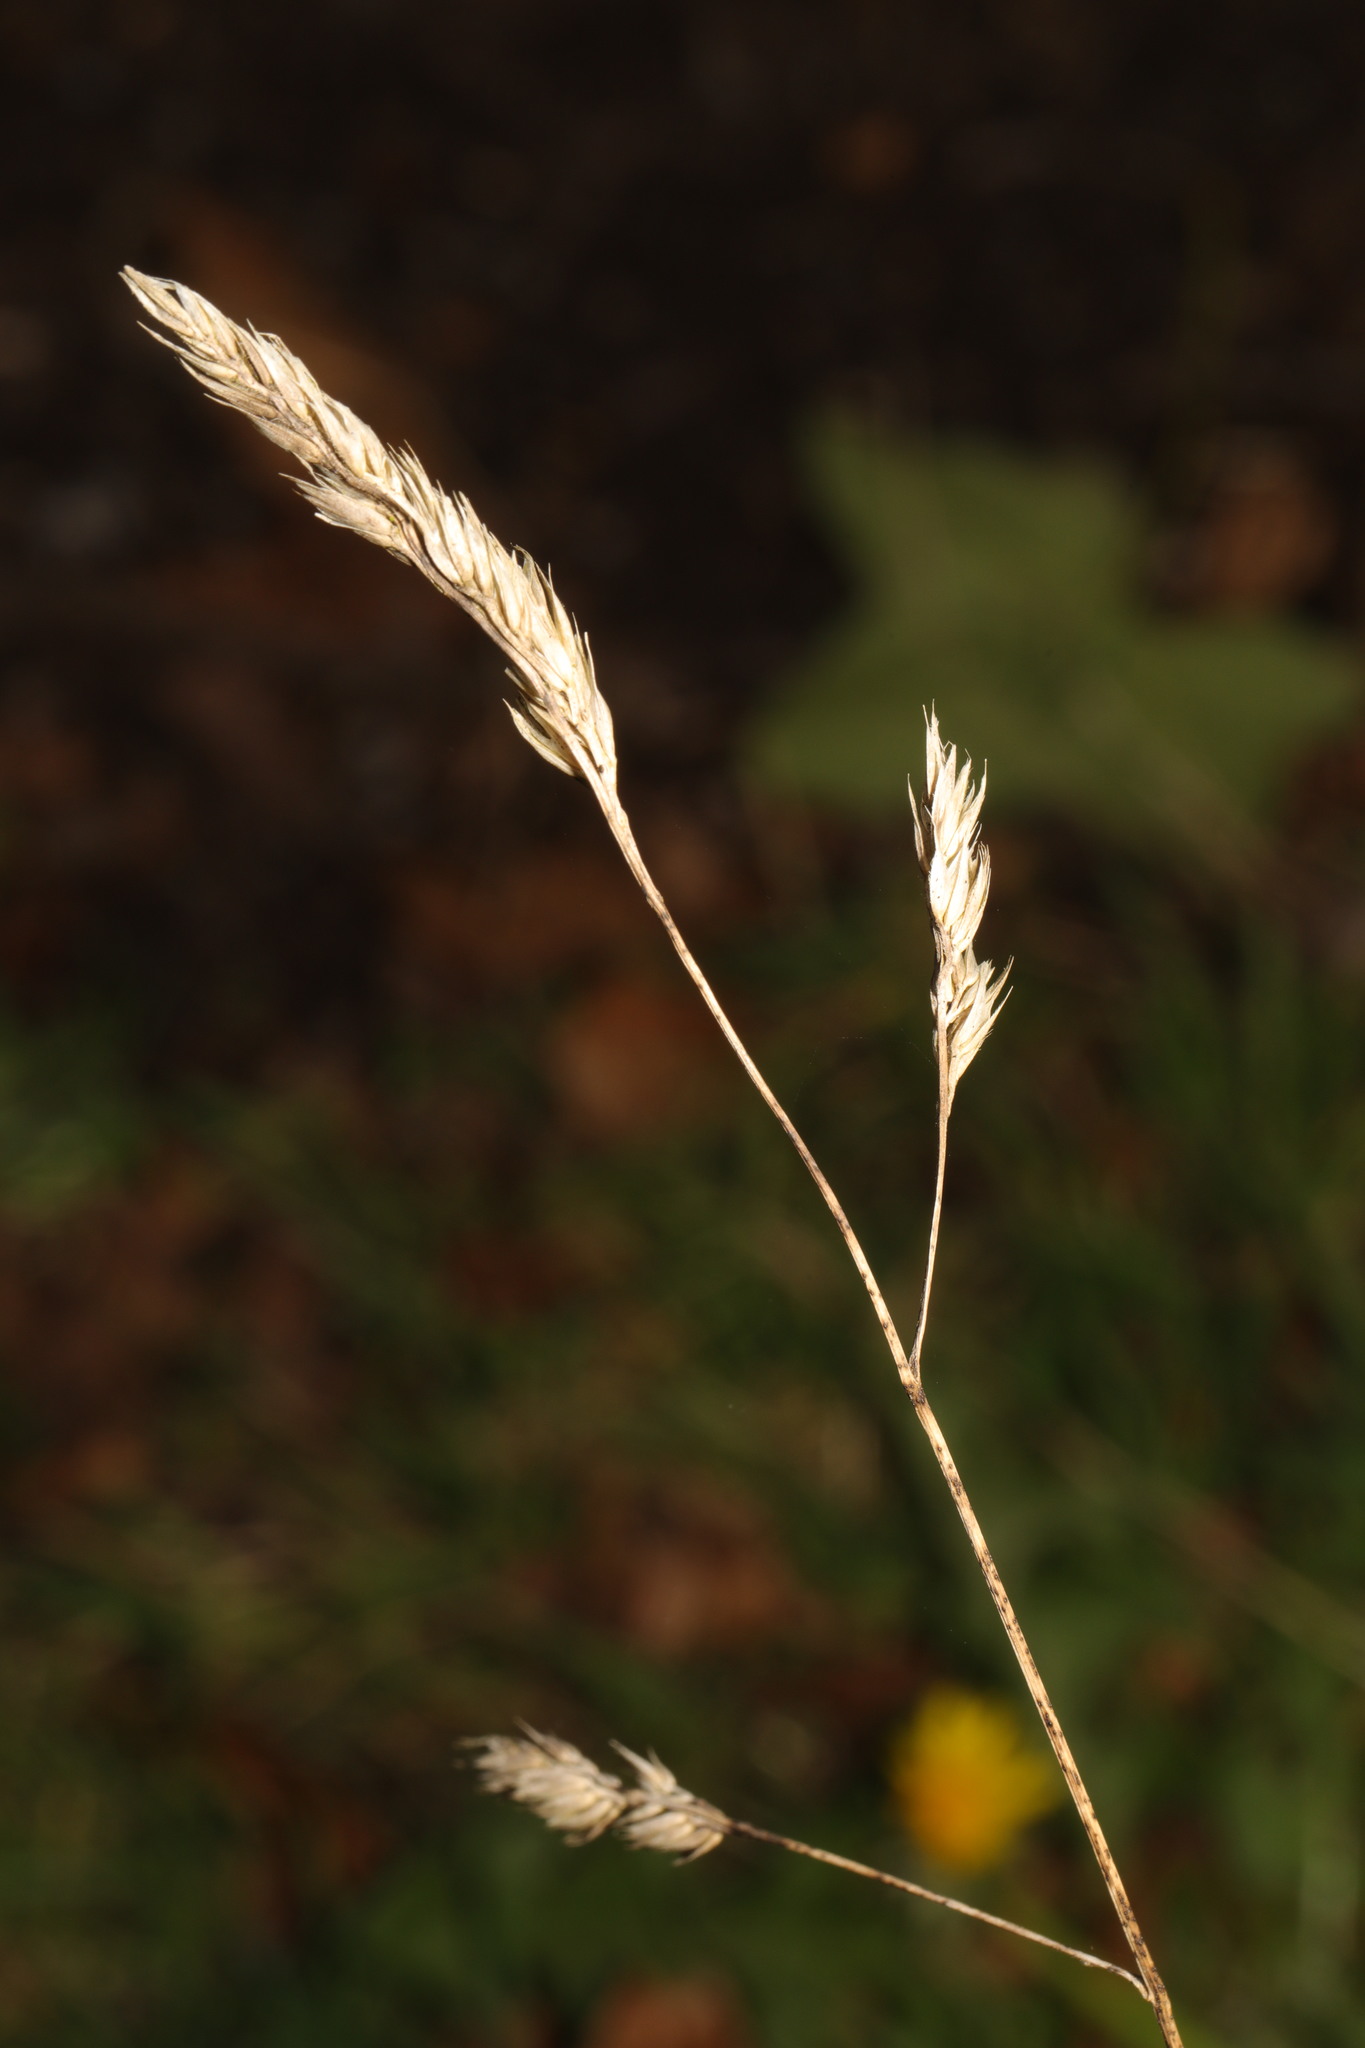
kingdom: Plantae
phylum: Tracheophyta
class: Liliopsida
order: Poales
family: Poaceae
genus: Dactylis
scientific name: Dactylis glomerata
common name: Orchardgrass
